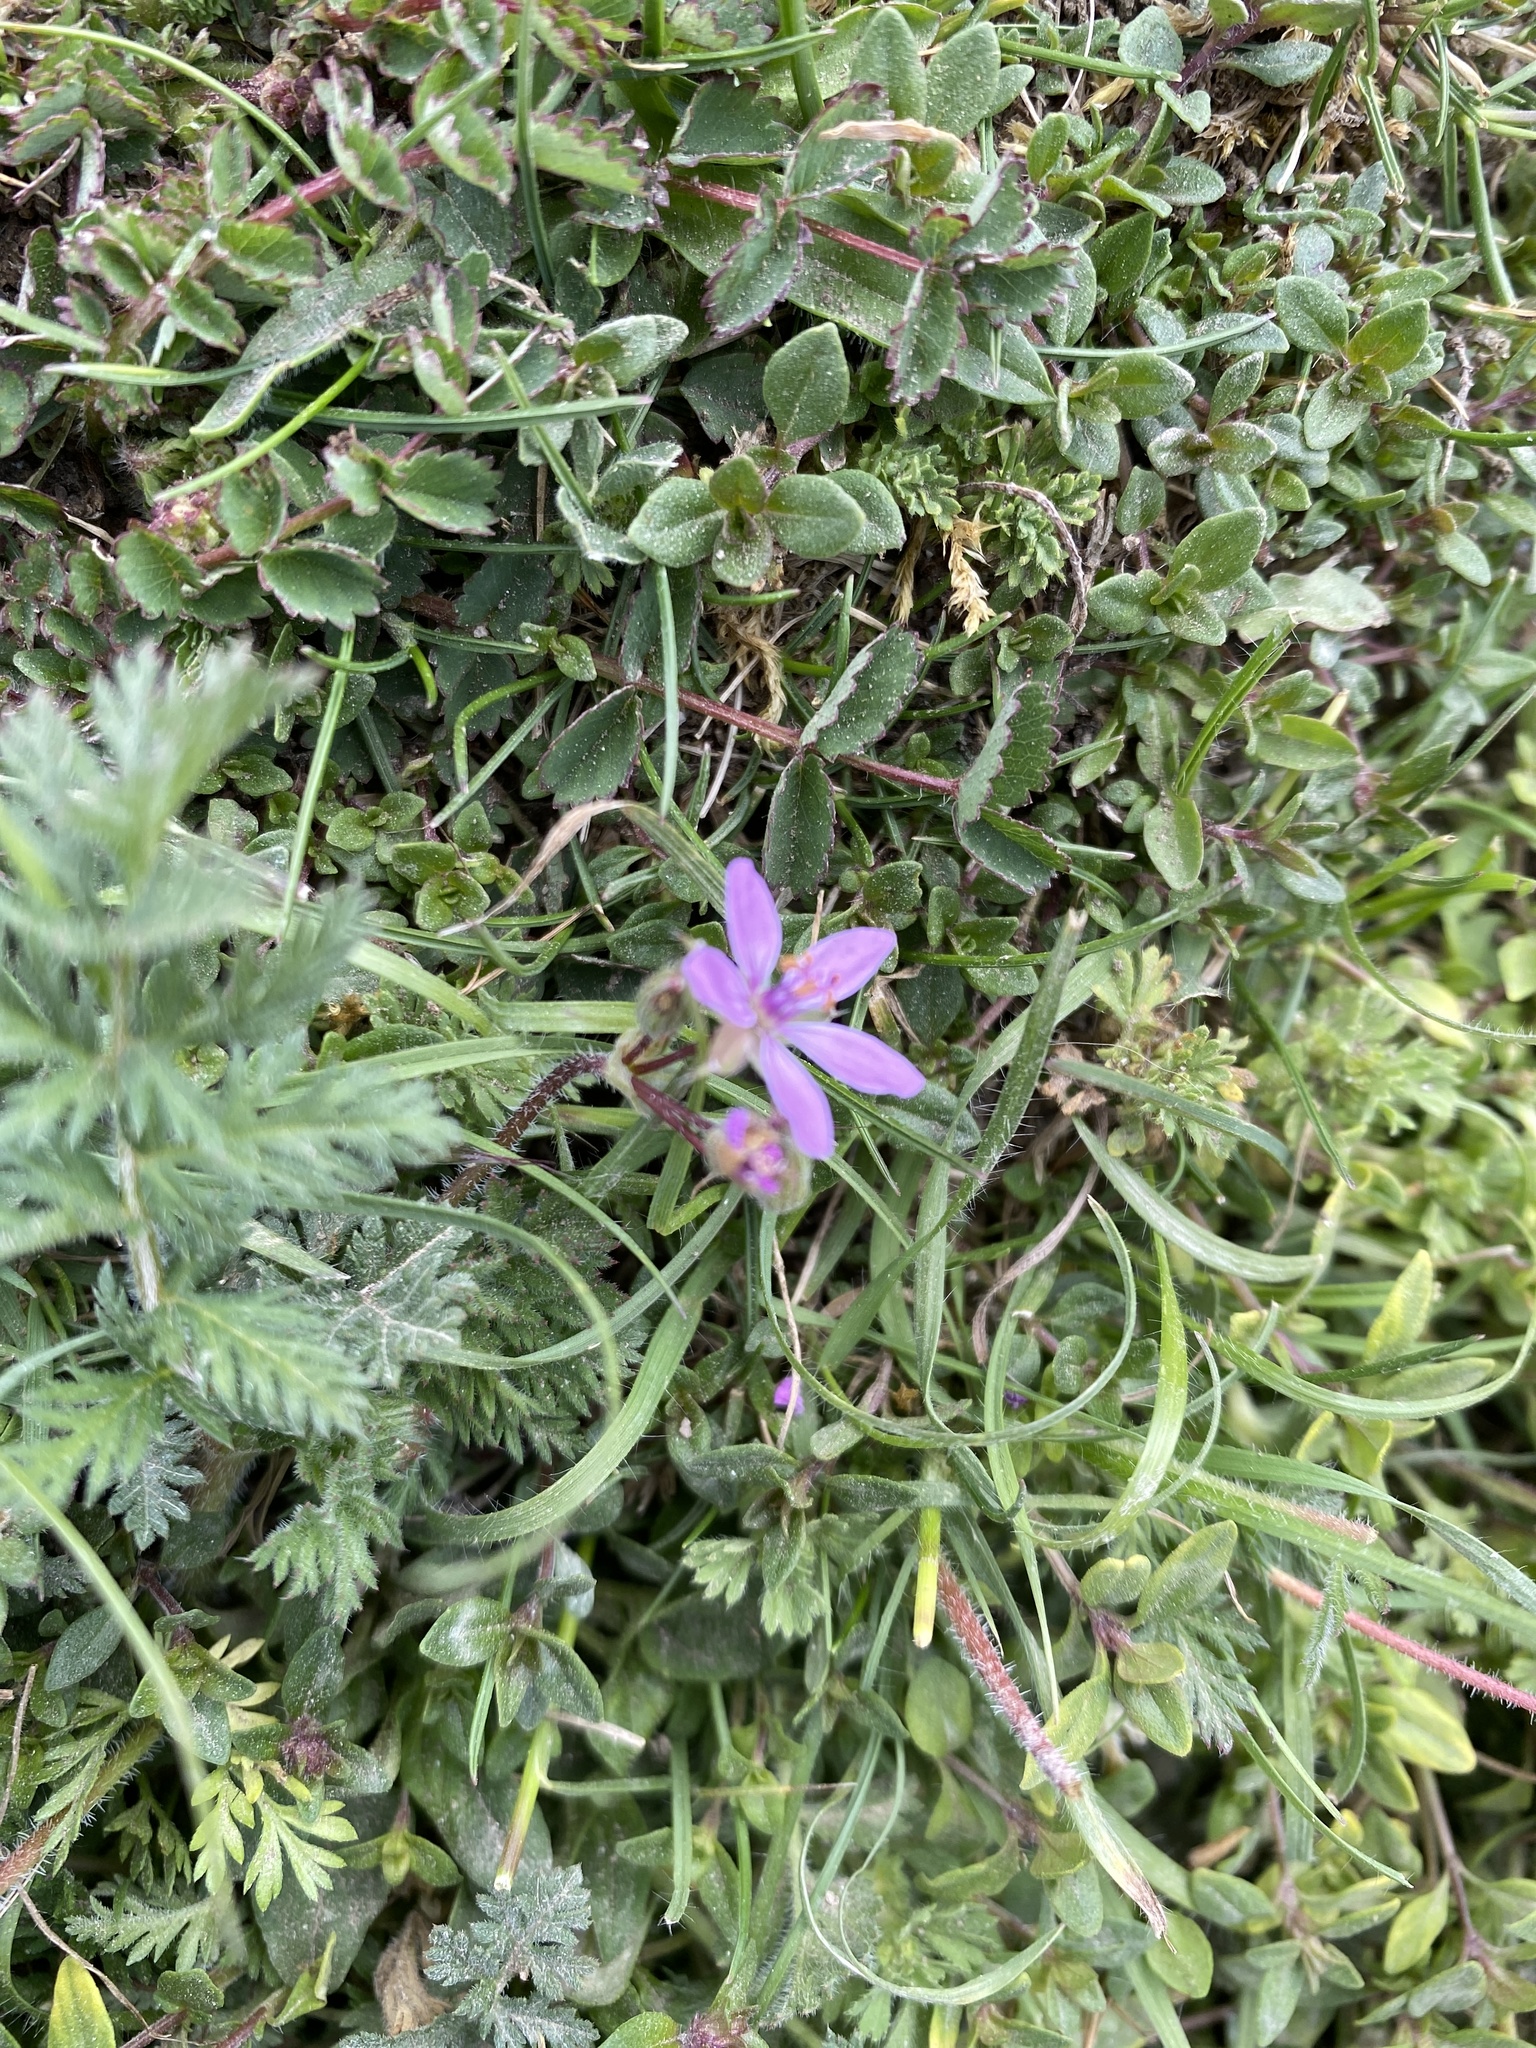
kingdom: Plantae
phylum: Tracheophyta
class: Magnoliopsida
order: Geraniales
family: Geraniaceae
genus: Erodium
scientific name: Erodium cicutarium
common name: Common stork's-bill
